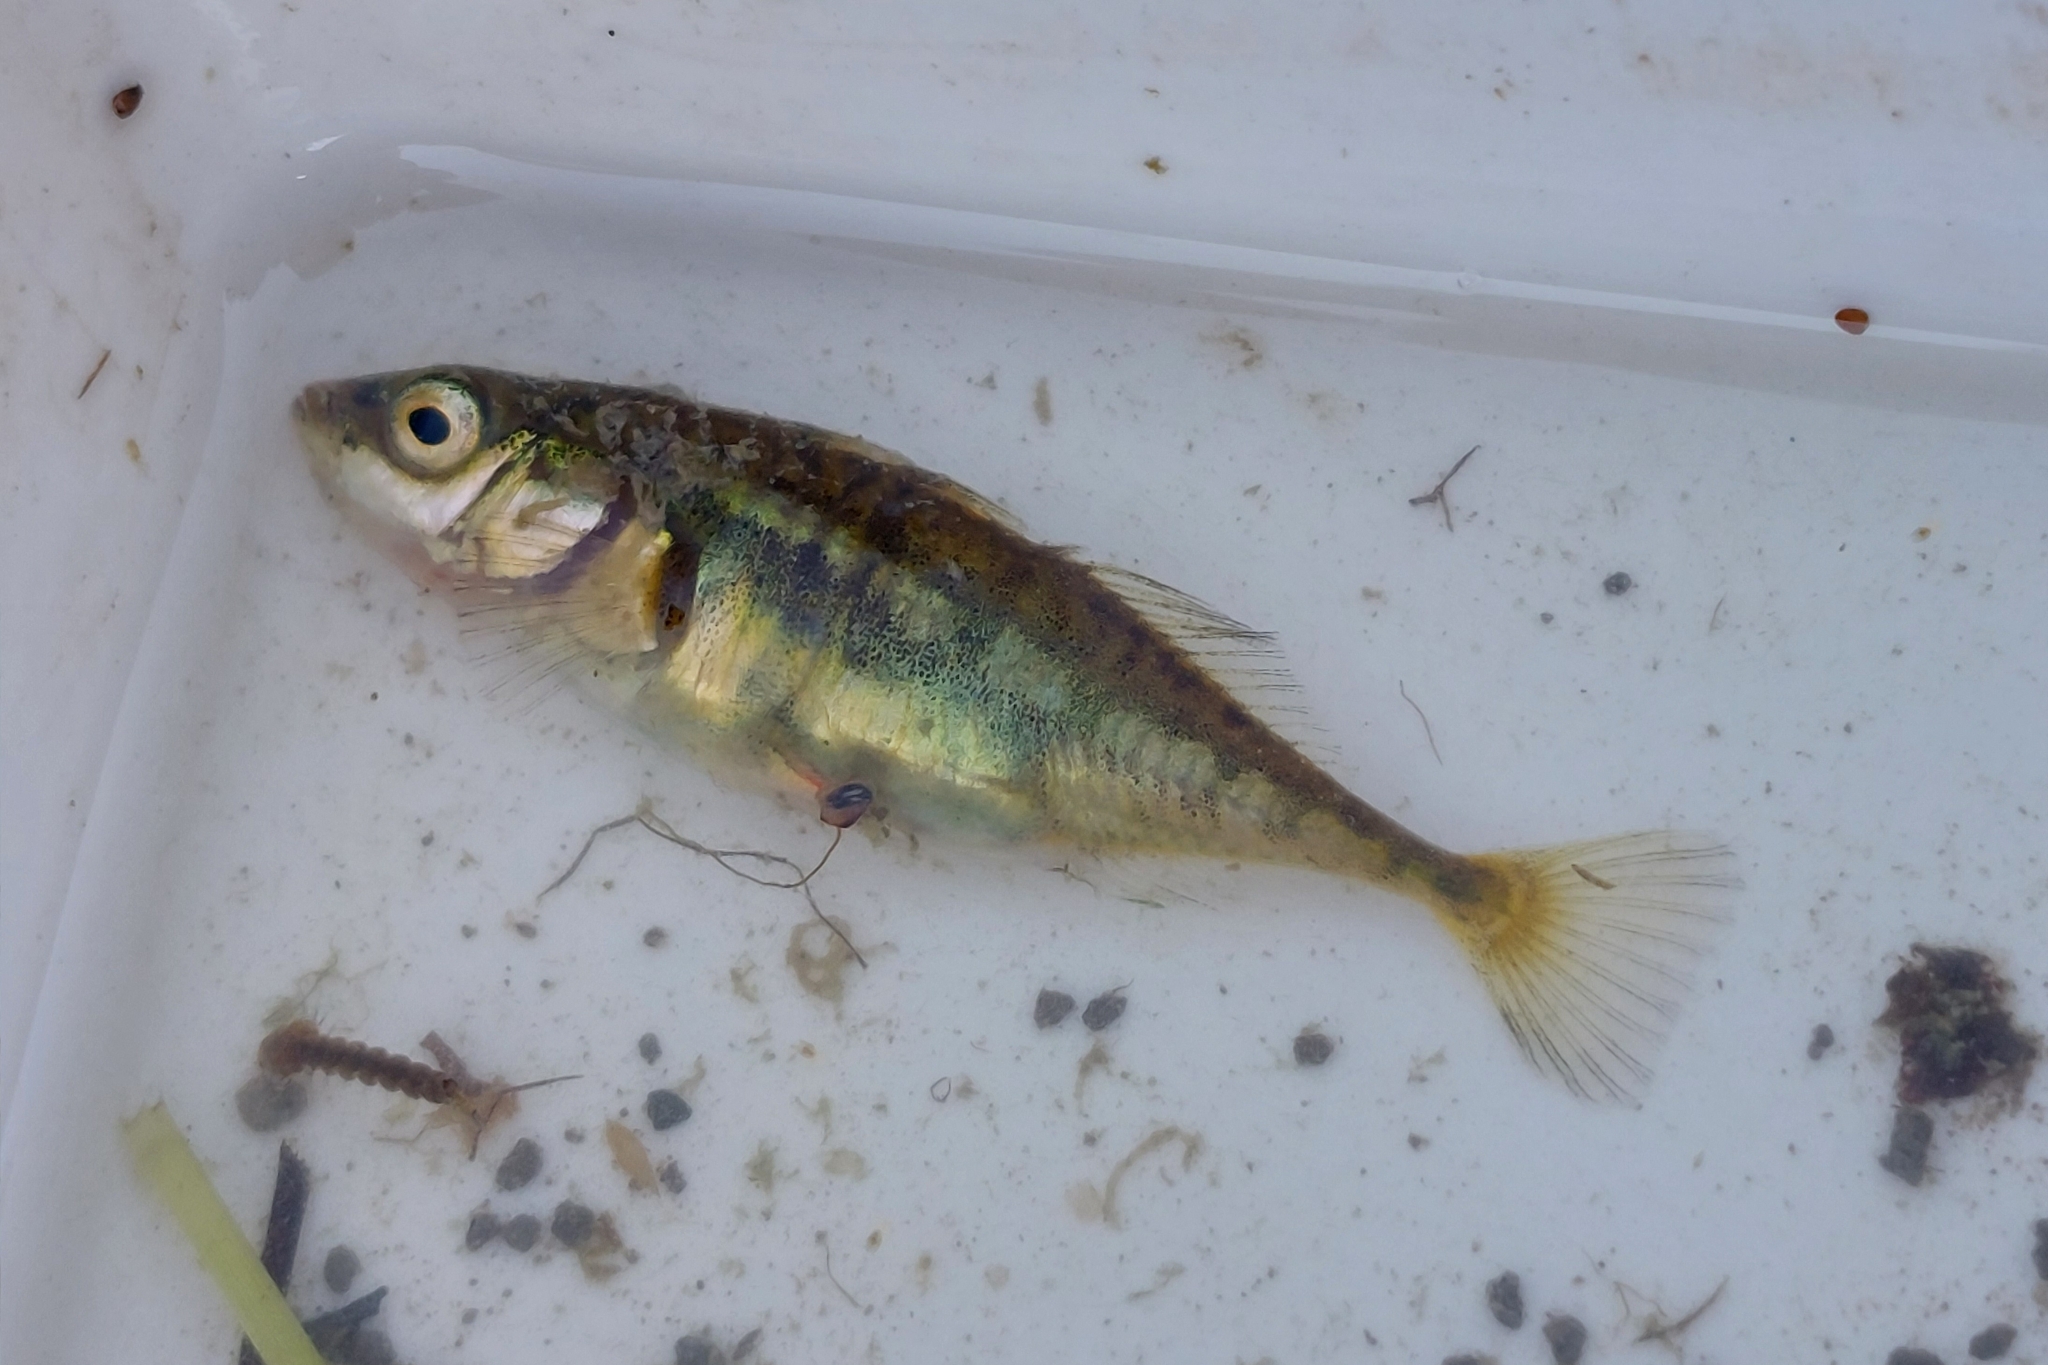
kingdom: Animalia
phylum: Chordata
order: Gasterosteiformes
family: Gasterosteidae
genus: Gasterosteus
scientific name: Gasterosteus aculeatus
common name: Three-spined stickleback
